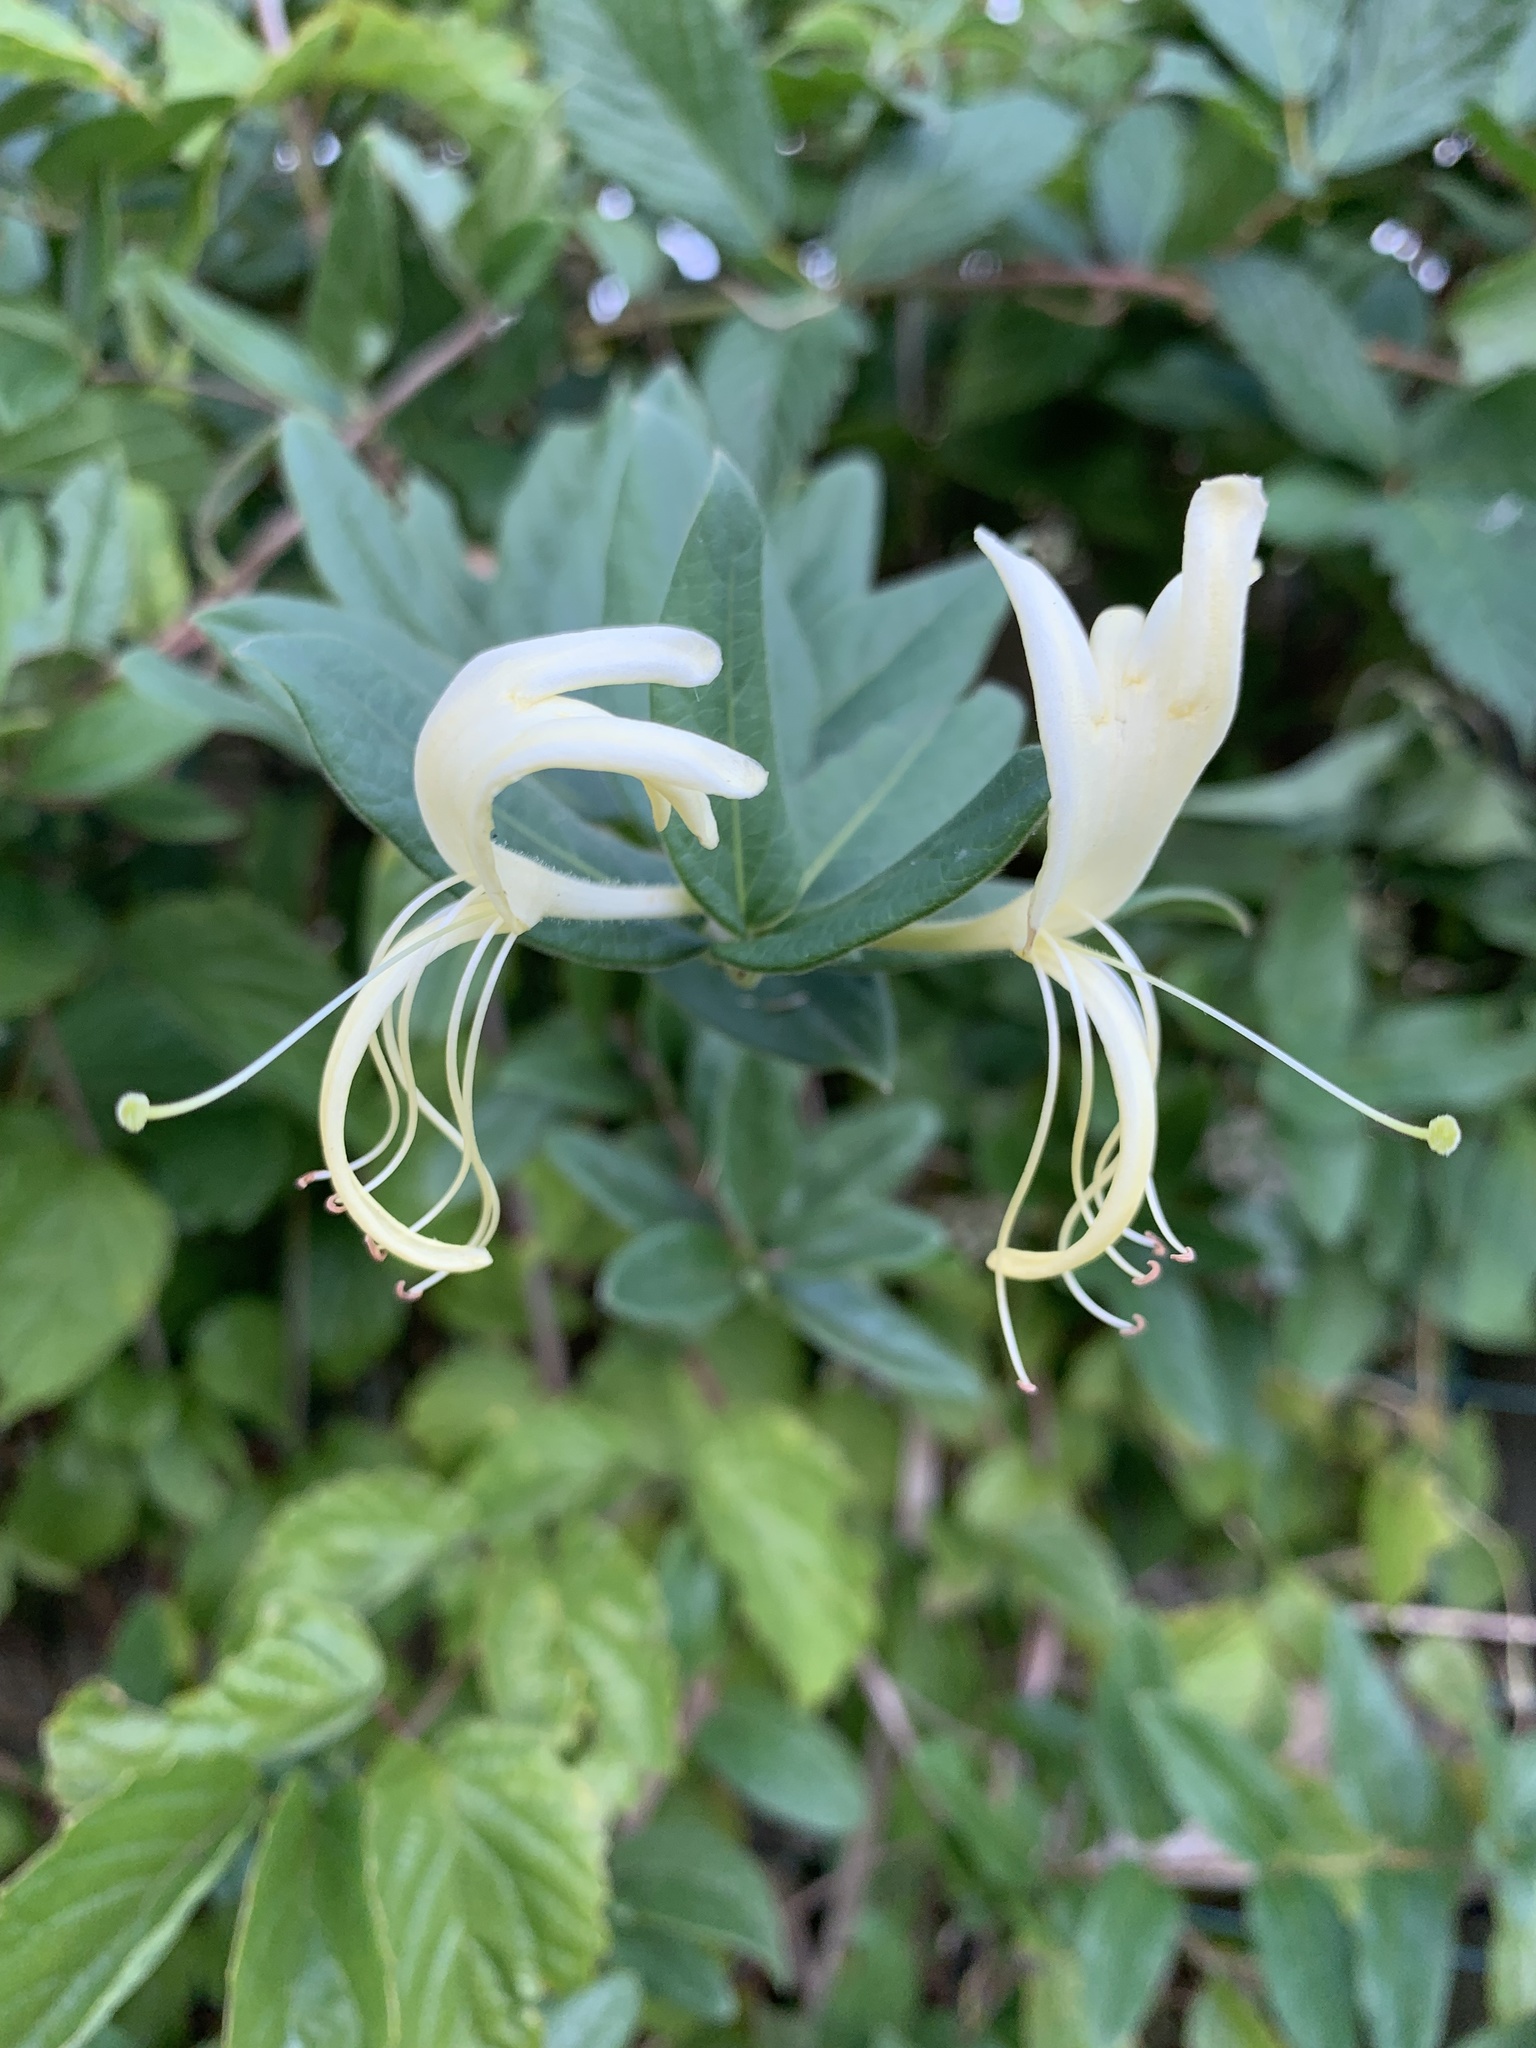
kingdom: Plantae
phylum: Tracheophyta
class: Magnoliopsida
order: Dipsacales
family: Caprifoliaceae
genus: Lonicera
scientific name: Lonicera japonica
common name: Japanese honeysuckle
